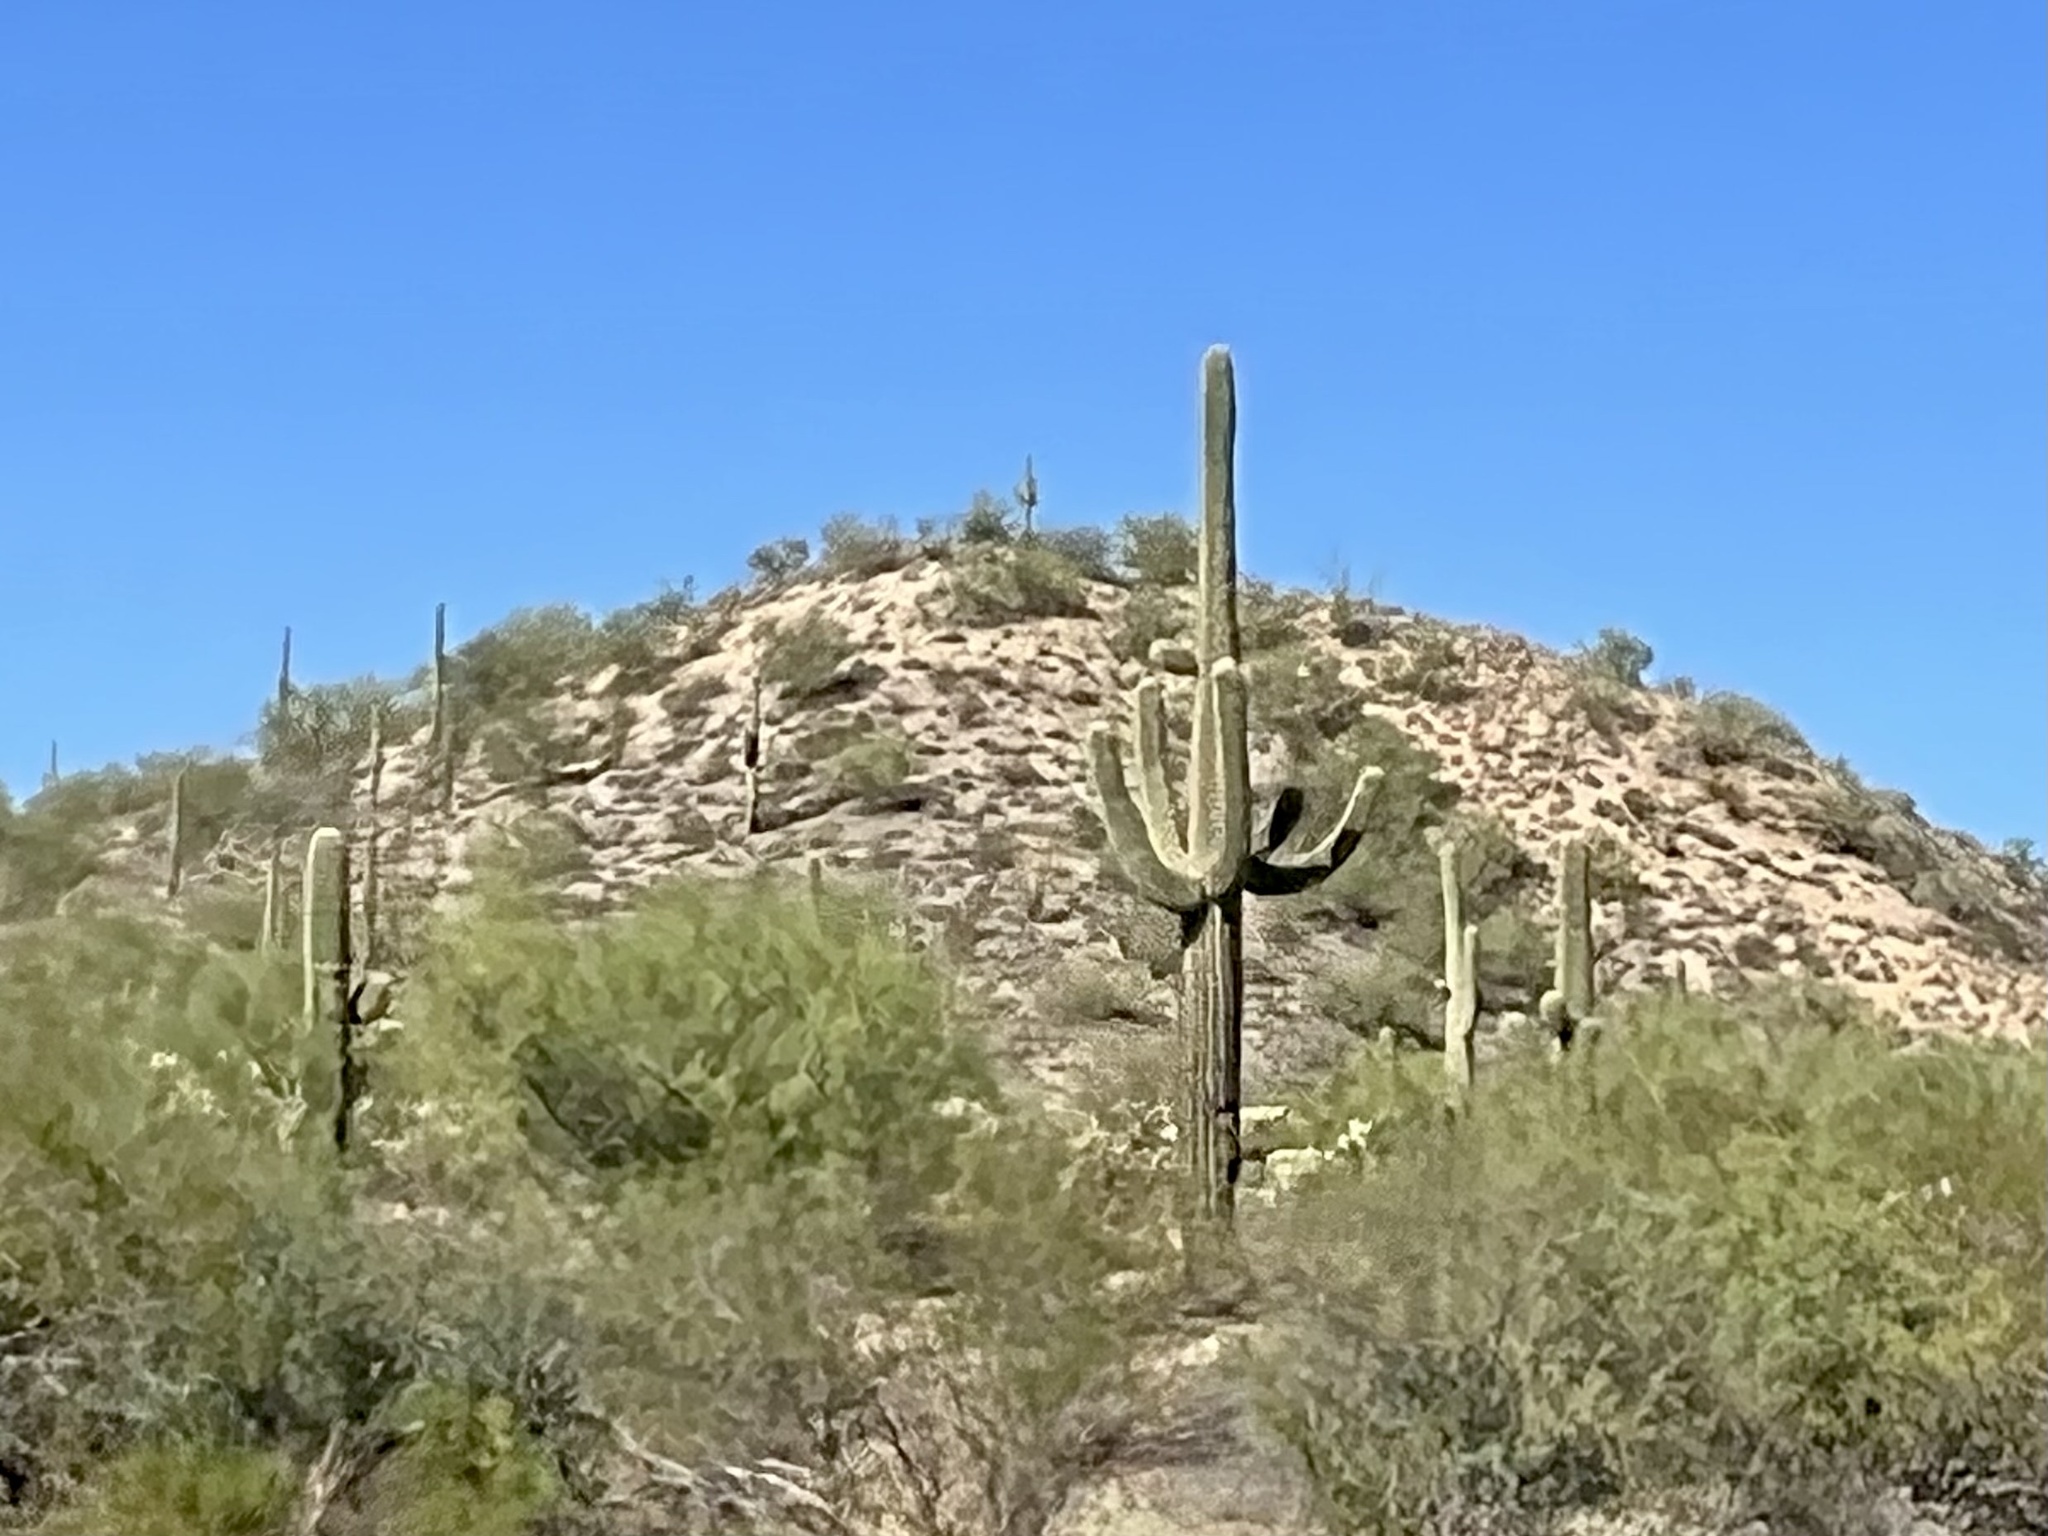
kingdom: Plantae
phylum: Tracheophyta
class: Magnoliopsida
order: Caryophyllales
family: Cactaceae
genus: Carnegiea
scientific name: Carnegiea gigantea
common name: Saguaro
